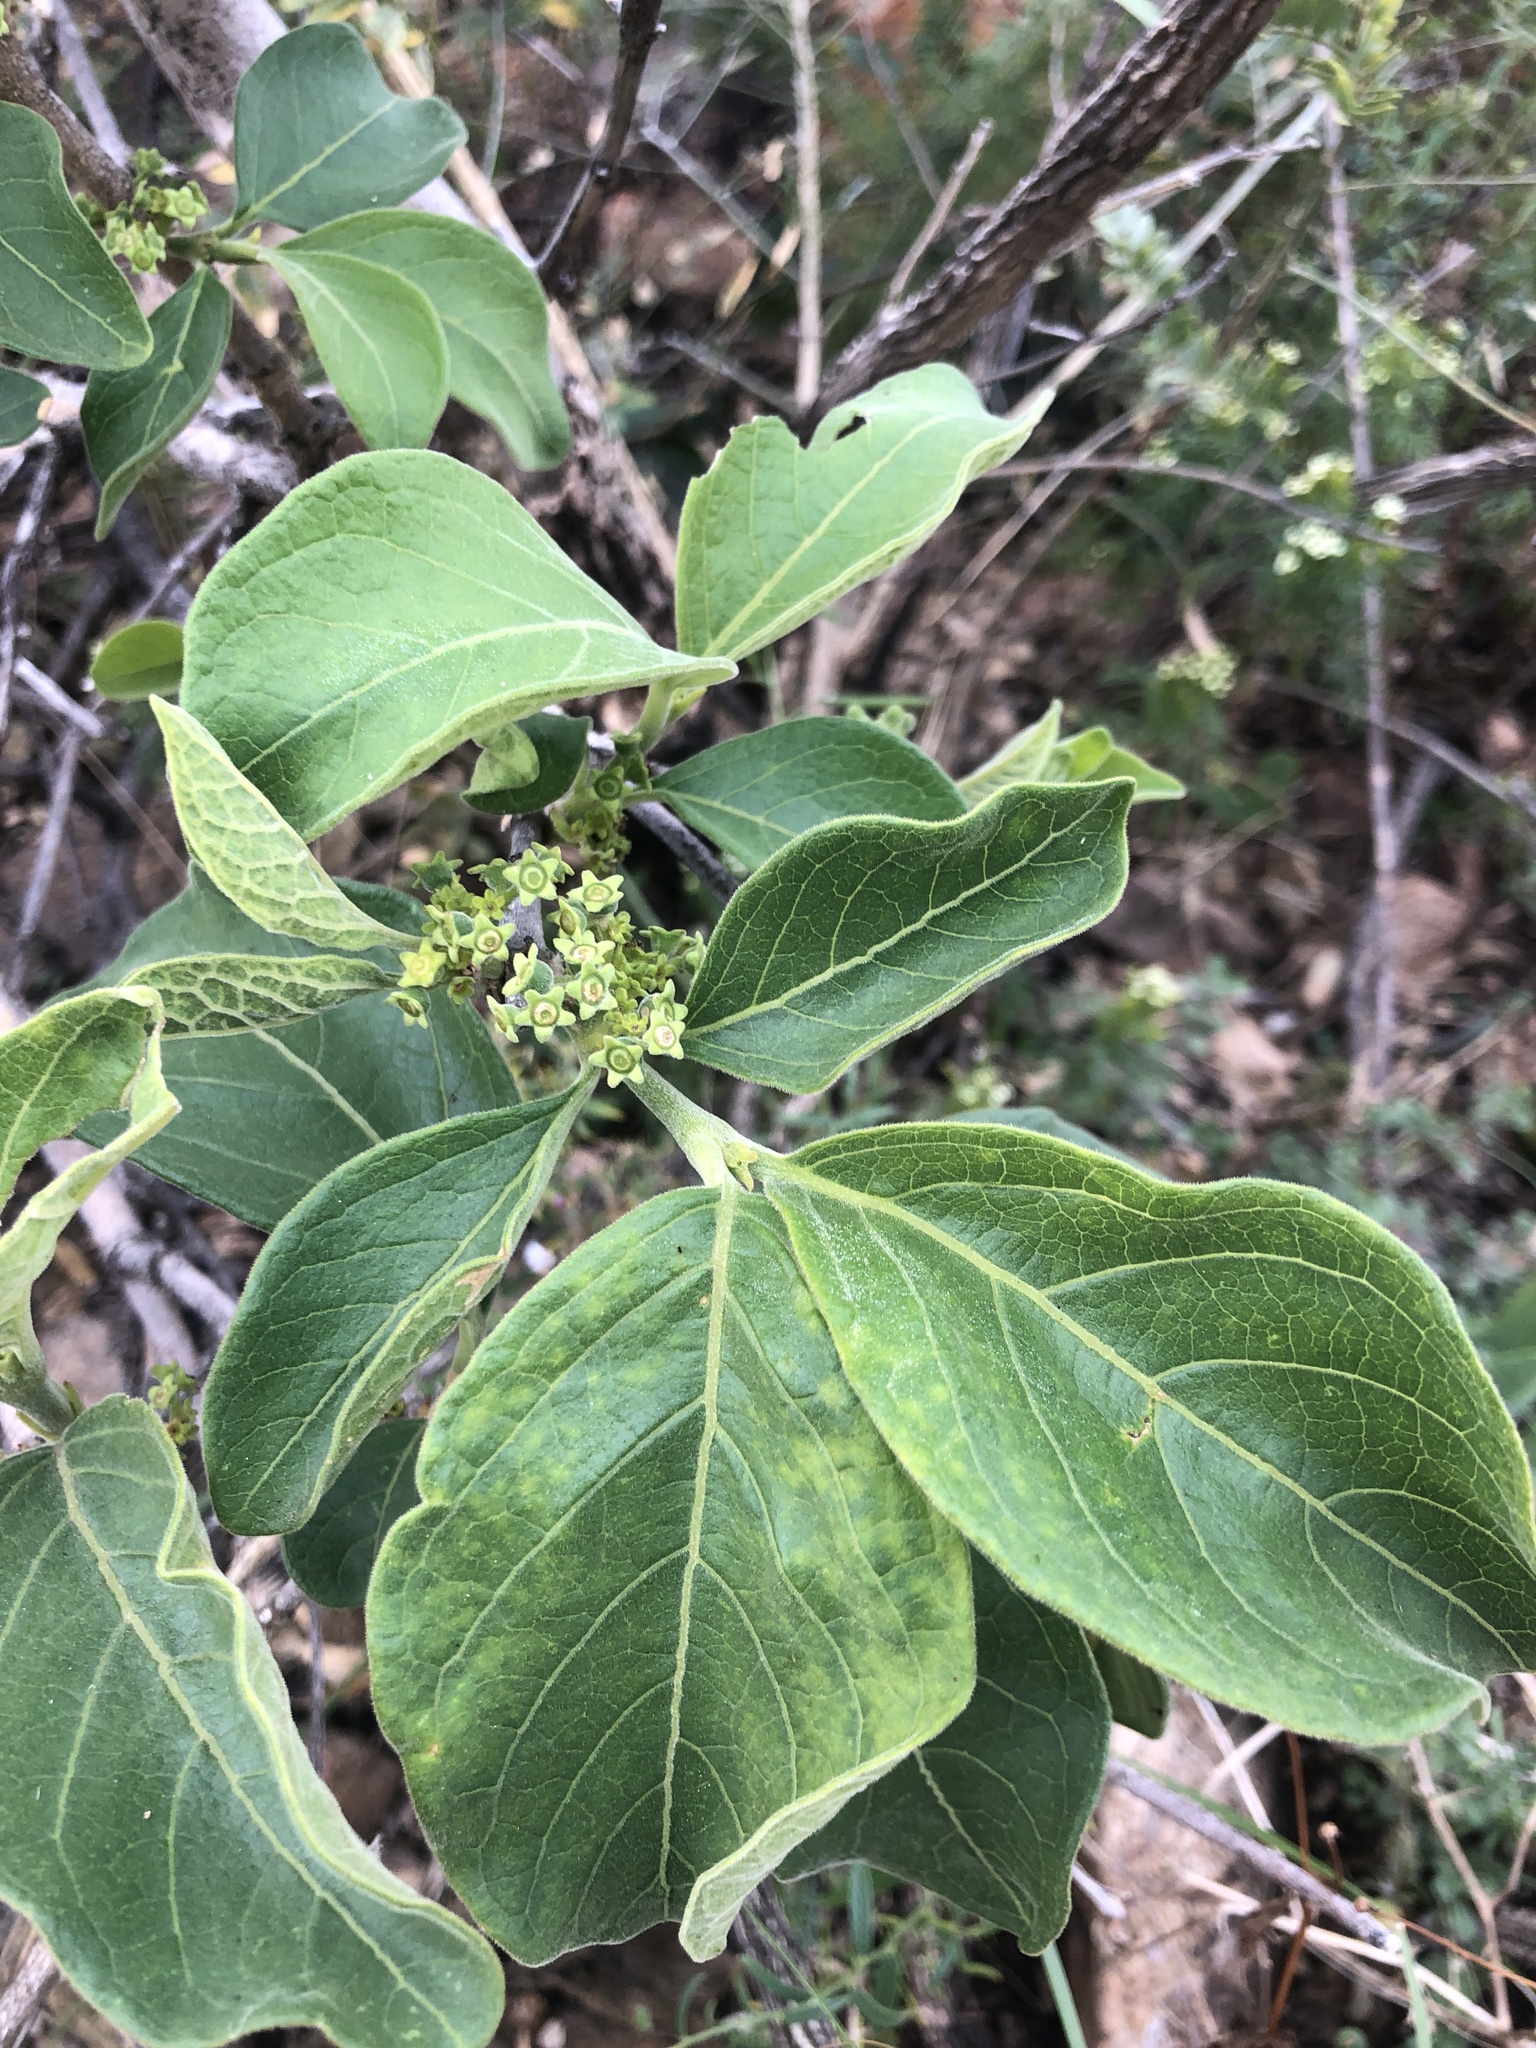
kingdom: Plantae
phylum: Tracheophyta
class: Magnoliopsida
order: Gentianales
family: Rubiaceae
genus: Vangueria
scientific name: Vangueria infausta
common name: Medlar
